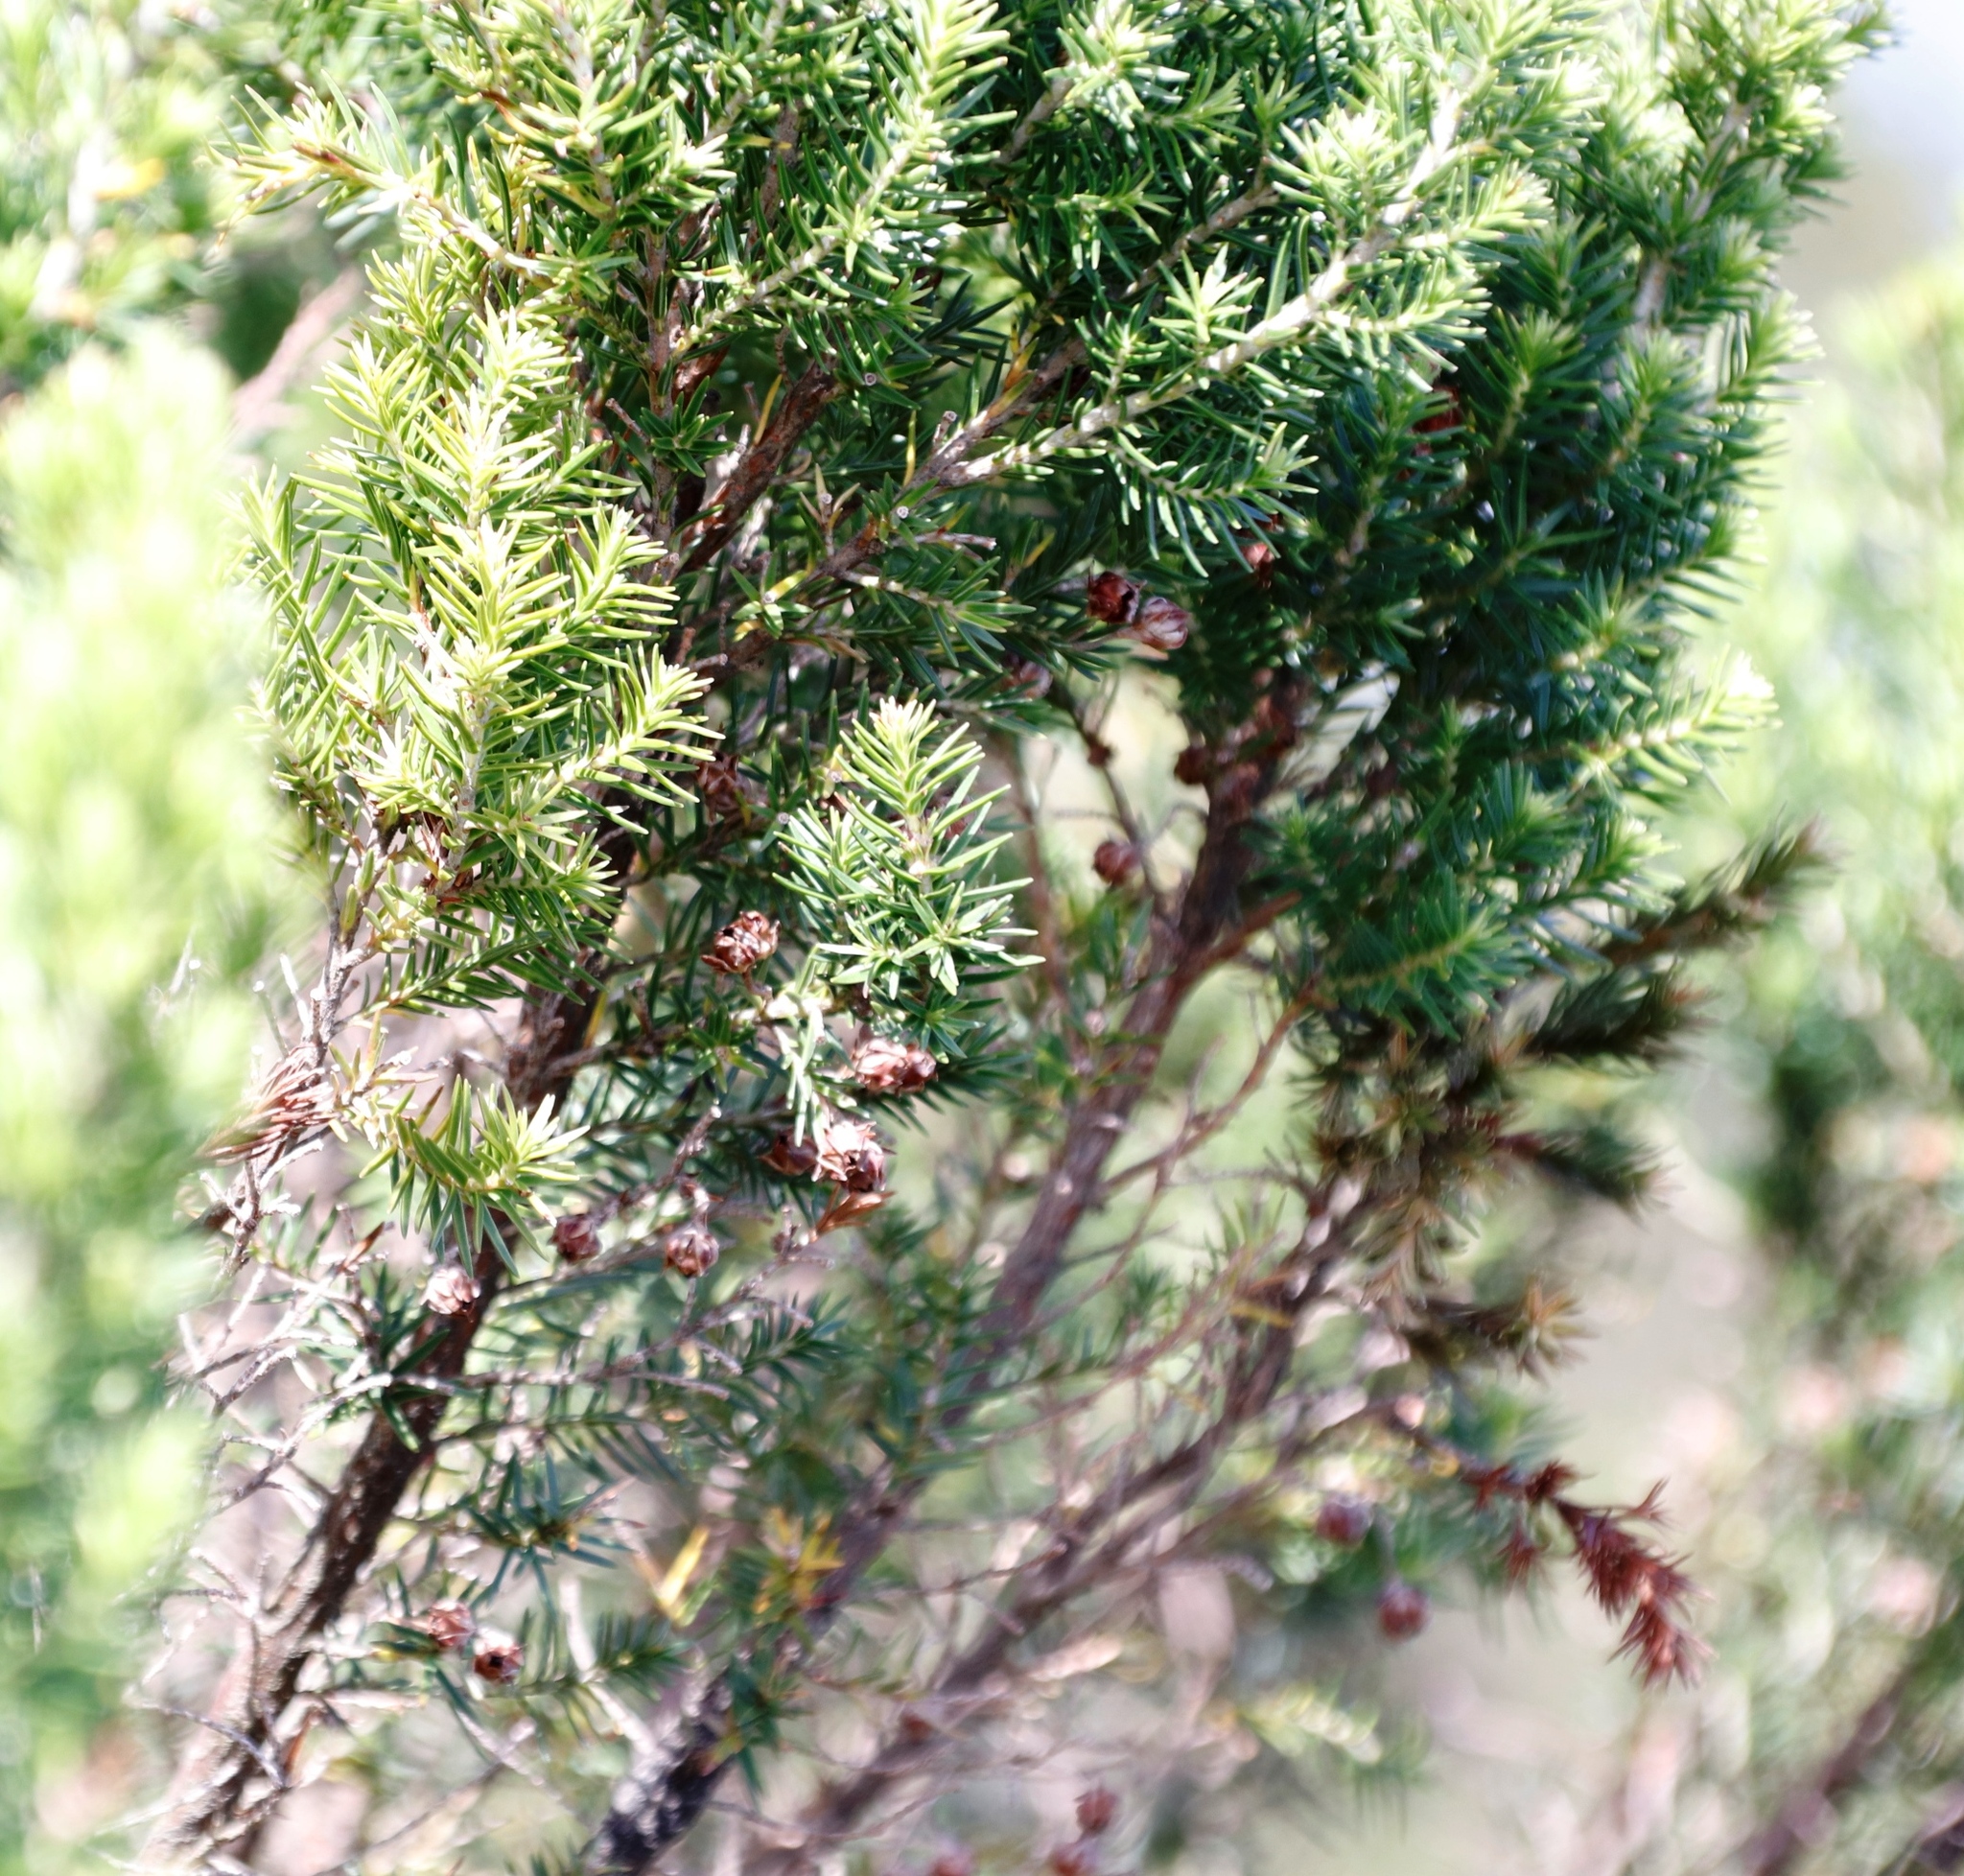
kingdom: Plantae
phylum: Tracheophyta
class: Magnoliopsida
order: Ericales
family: Ericaceae
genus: Erica
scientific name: Erica triflora
